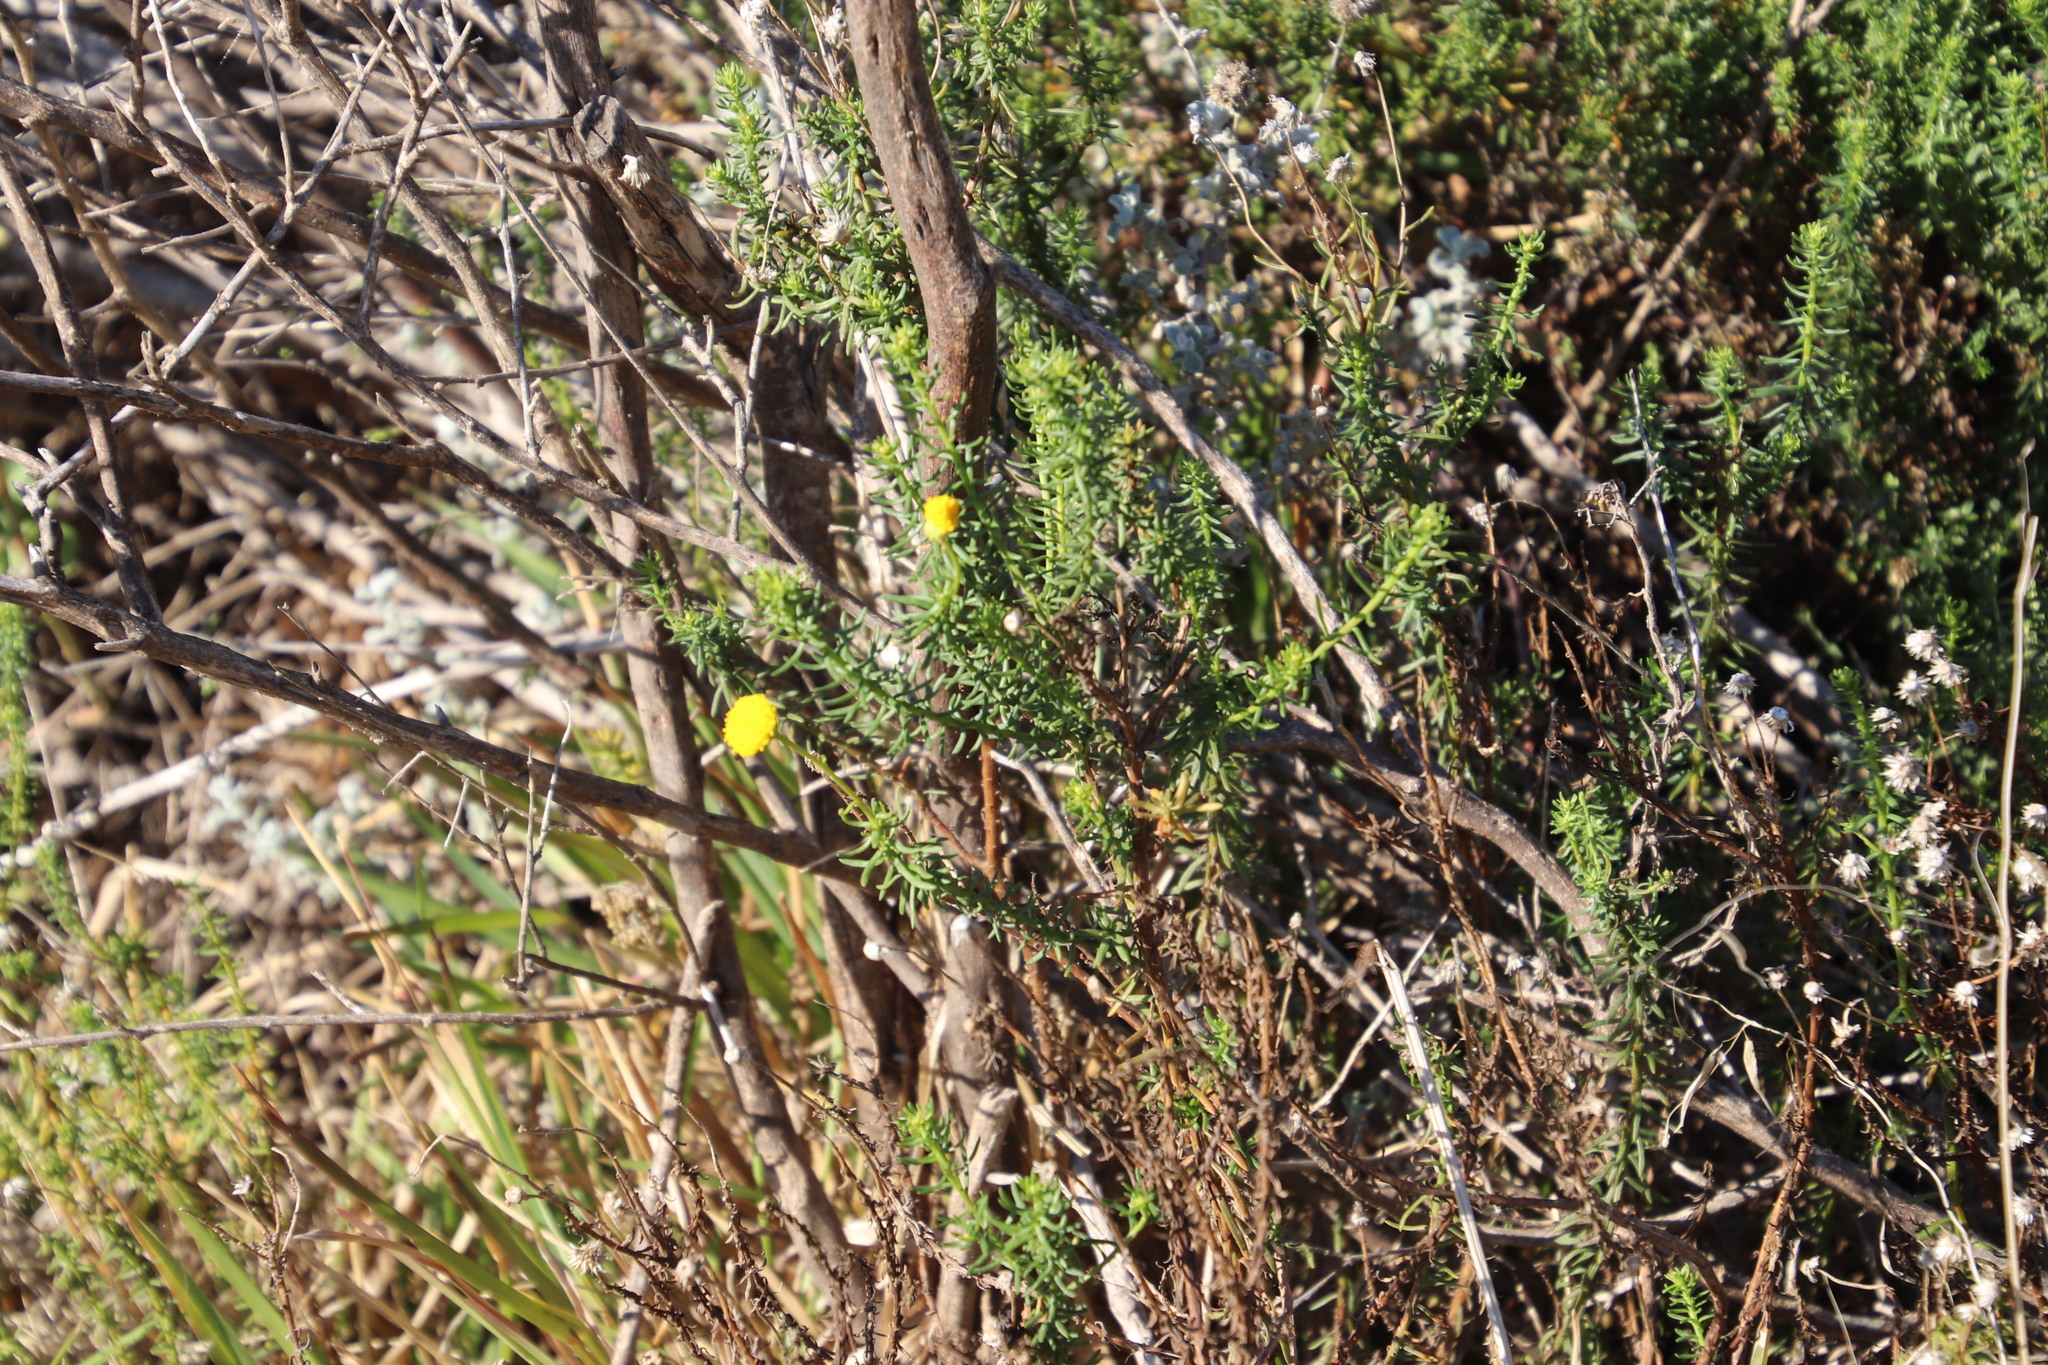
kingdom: Plantae
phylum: Tracheophyta
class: Magnoliopsida
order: Asterales
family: Asteraceae
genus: Chrysocoma
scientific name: Chrysocoma ciliata
